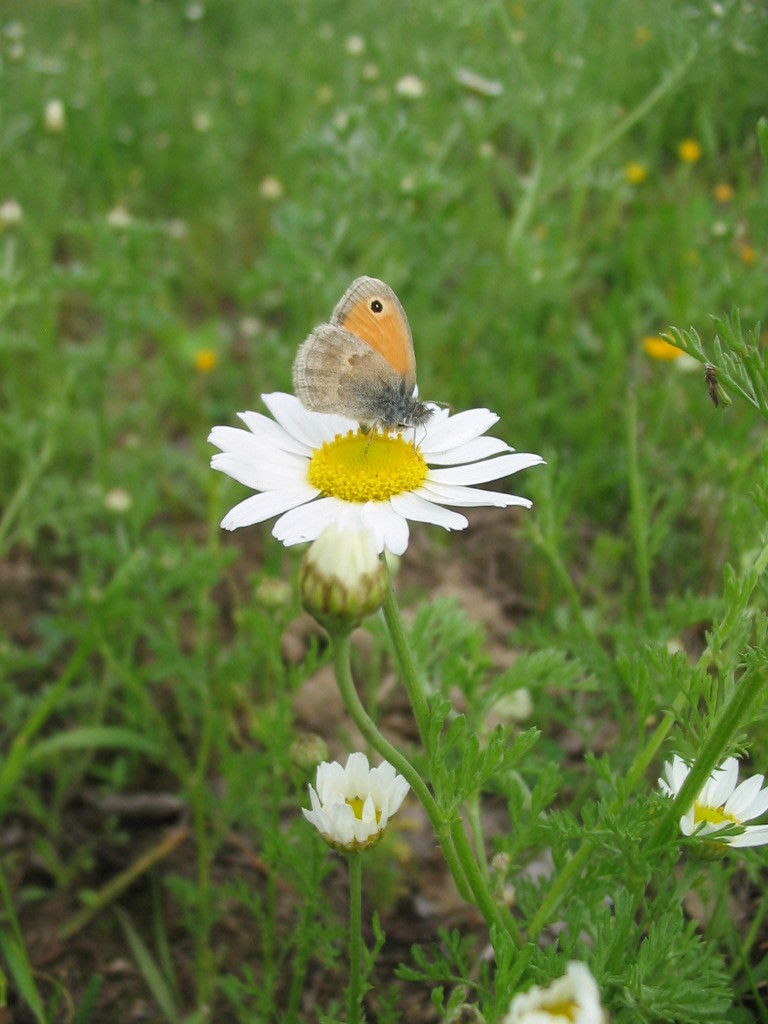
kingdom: Animalia
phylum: Arthropoda
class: Insecta
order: Lepidoptera
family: Nymphalidae
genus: Coenonympha
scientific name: Coenonympha pamphilus
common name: Small heath
